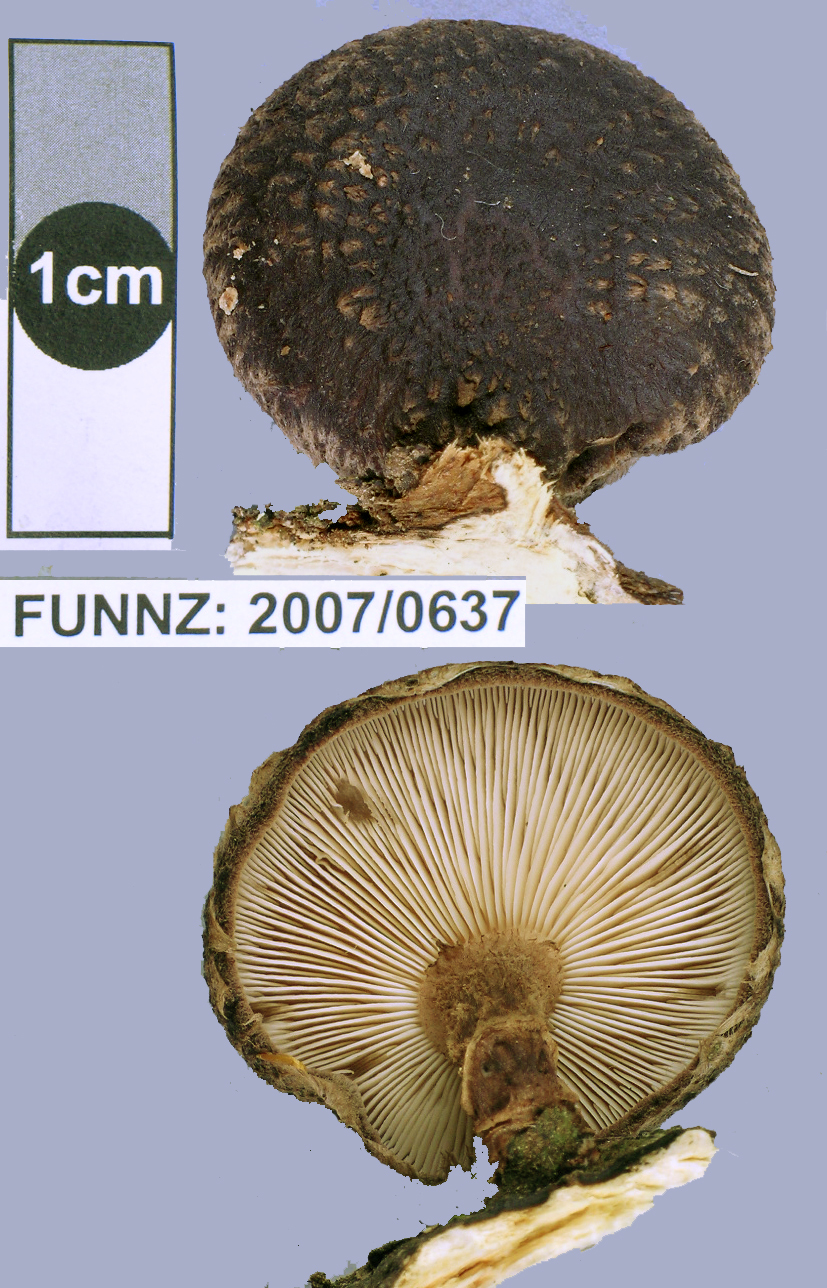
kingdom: Fungi
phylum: Basidiomycota
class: Agaricomycetes
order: Agaricales
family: Omphalotaceae
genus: Lentinula
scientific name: Lentinula novae-zelandiae
